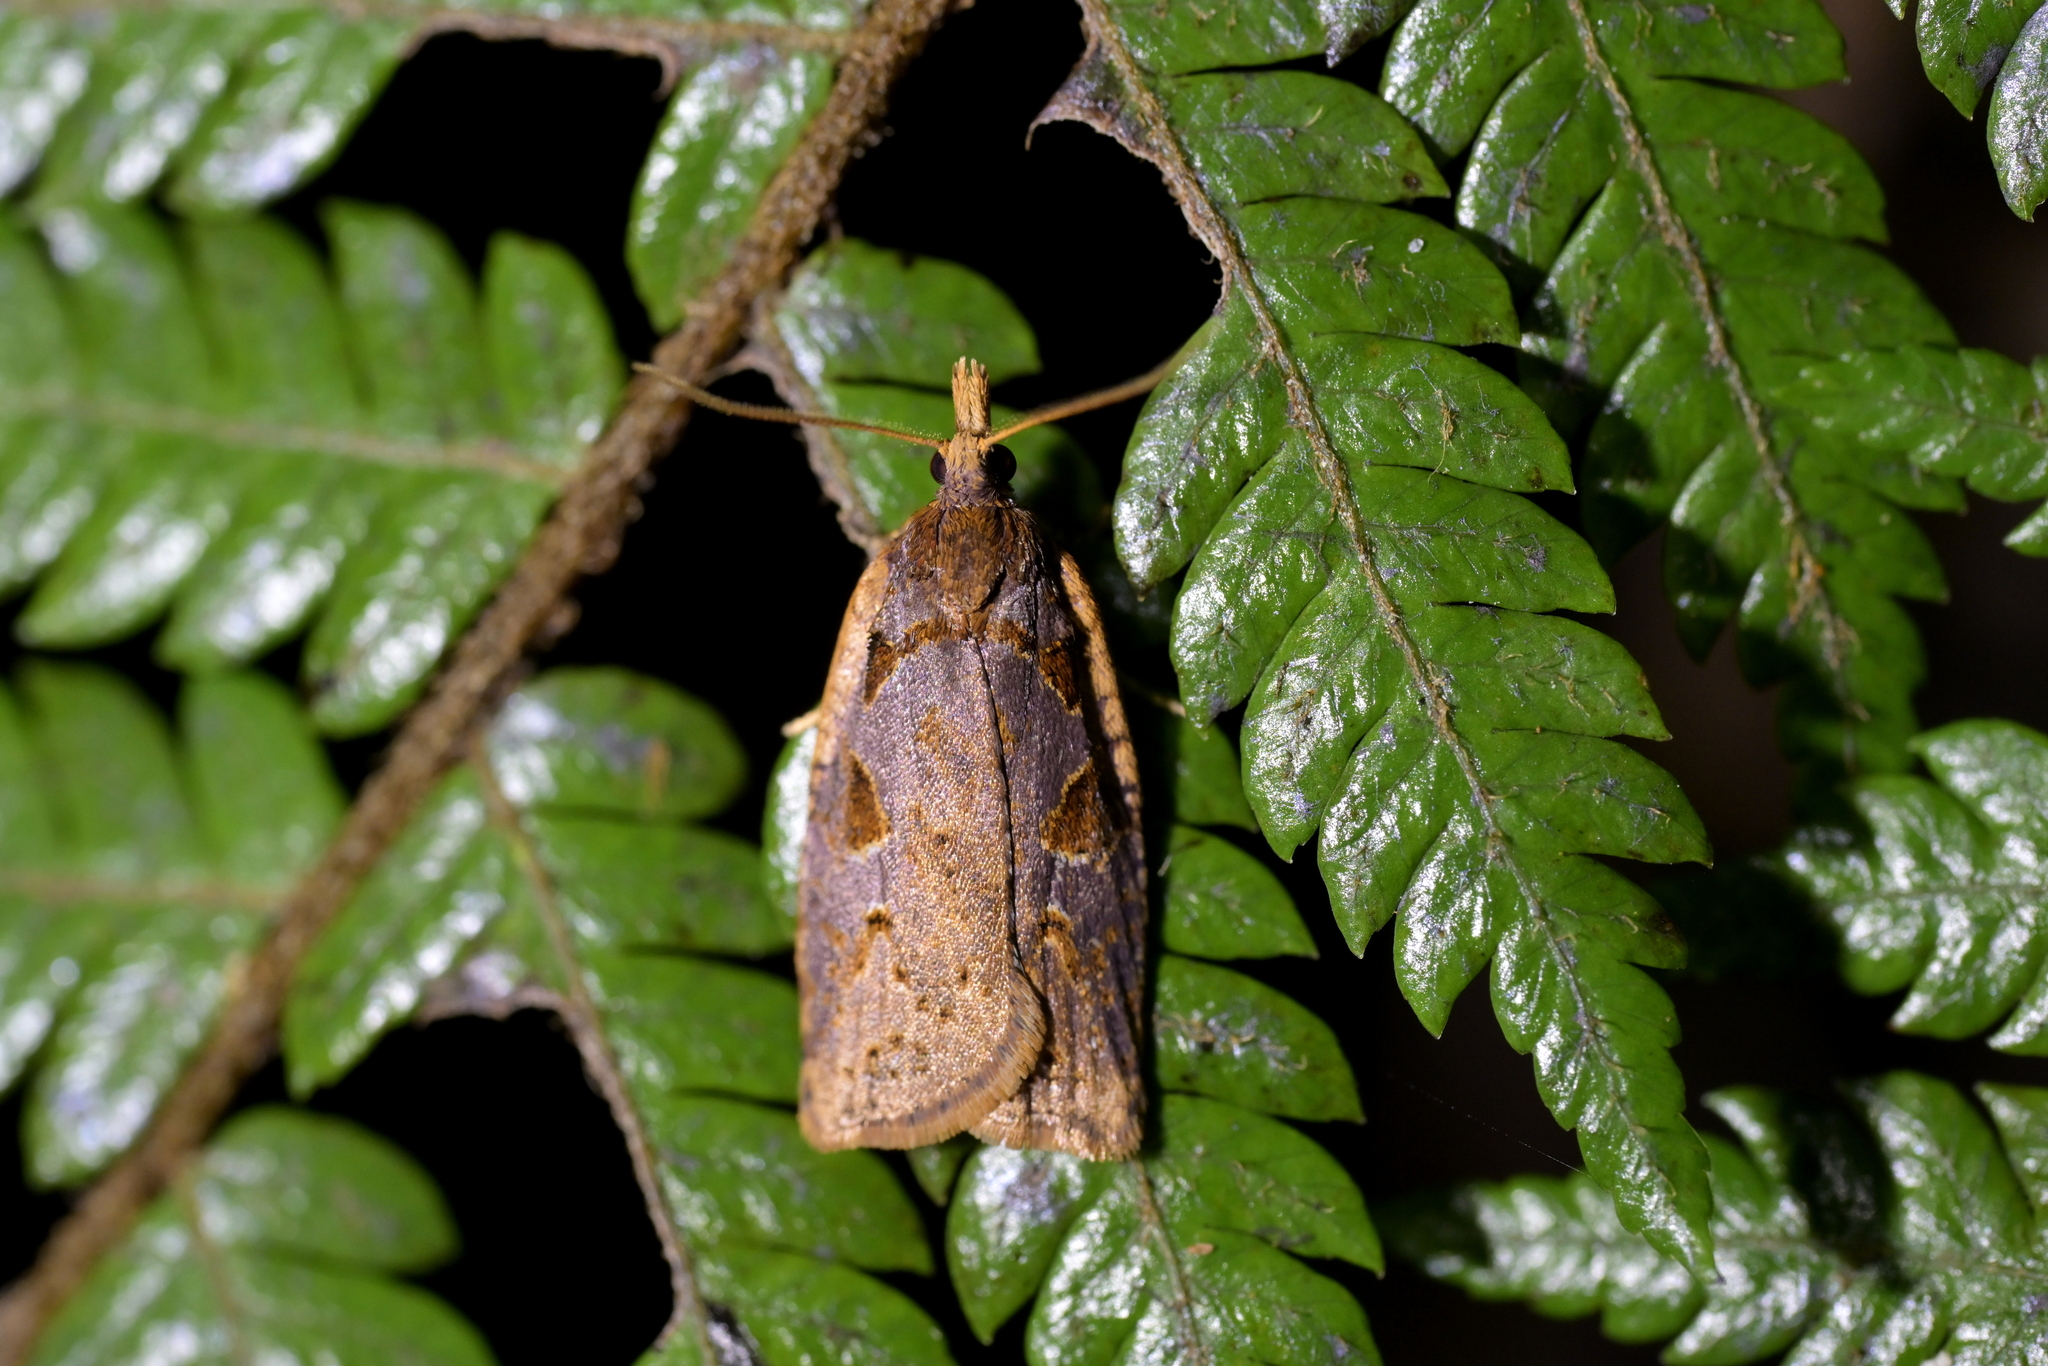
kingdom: Animalia
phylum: Arthropoda
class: Insecta
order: Lepidoptera
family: Tortricidae
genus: Ctenopseustis
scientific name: Ctenopseustis fraterna
